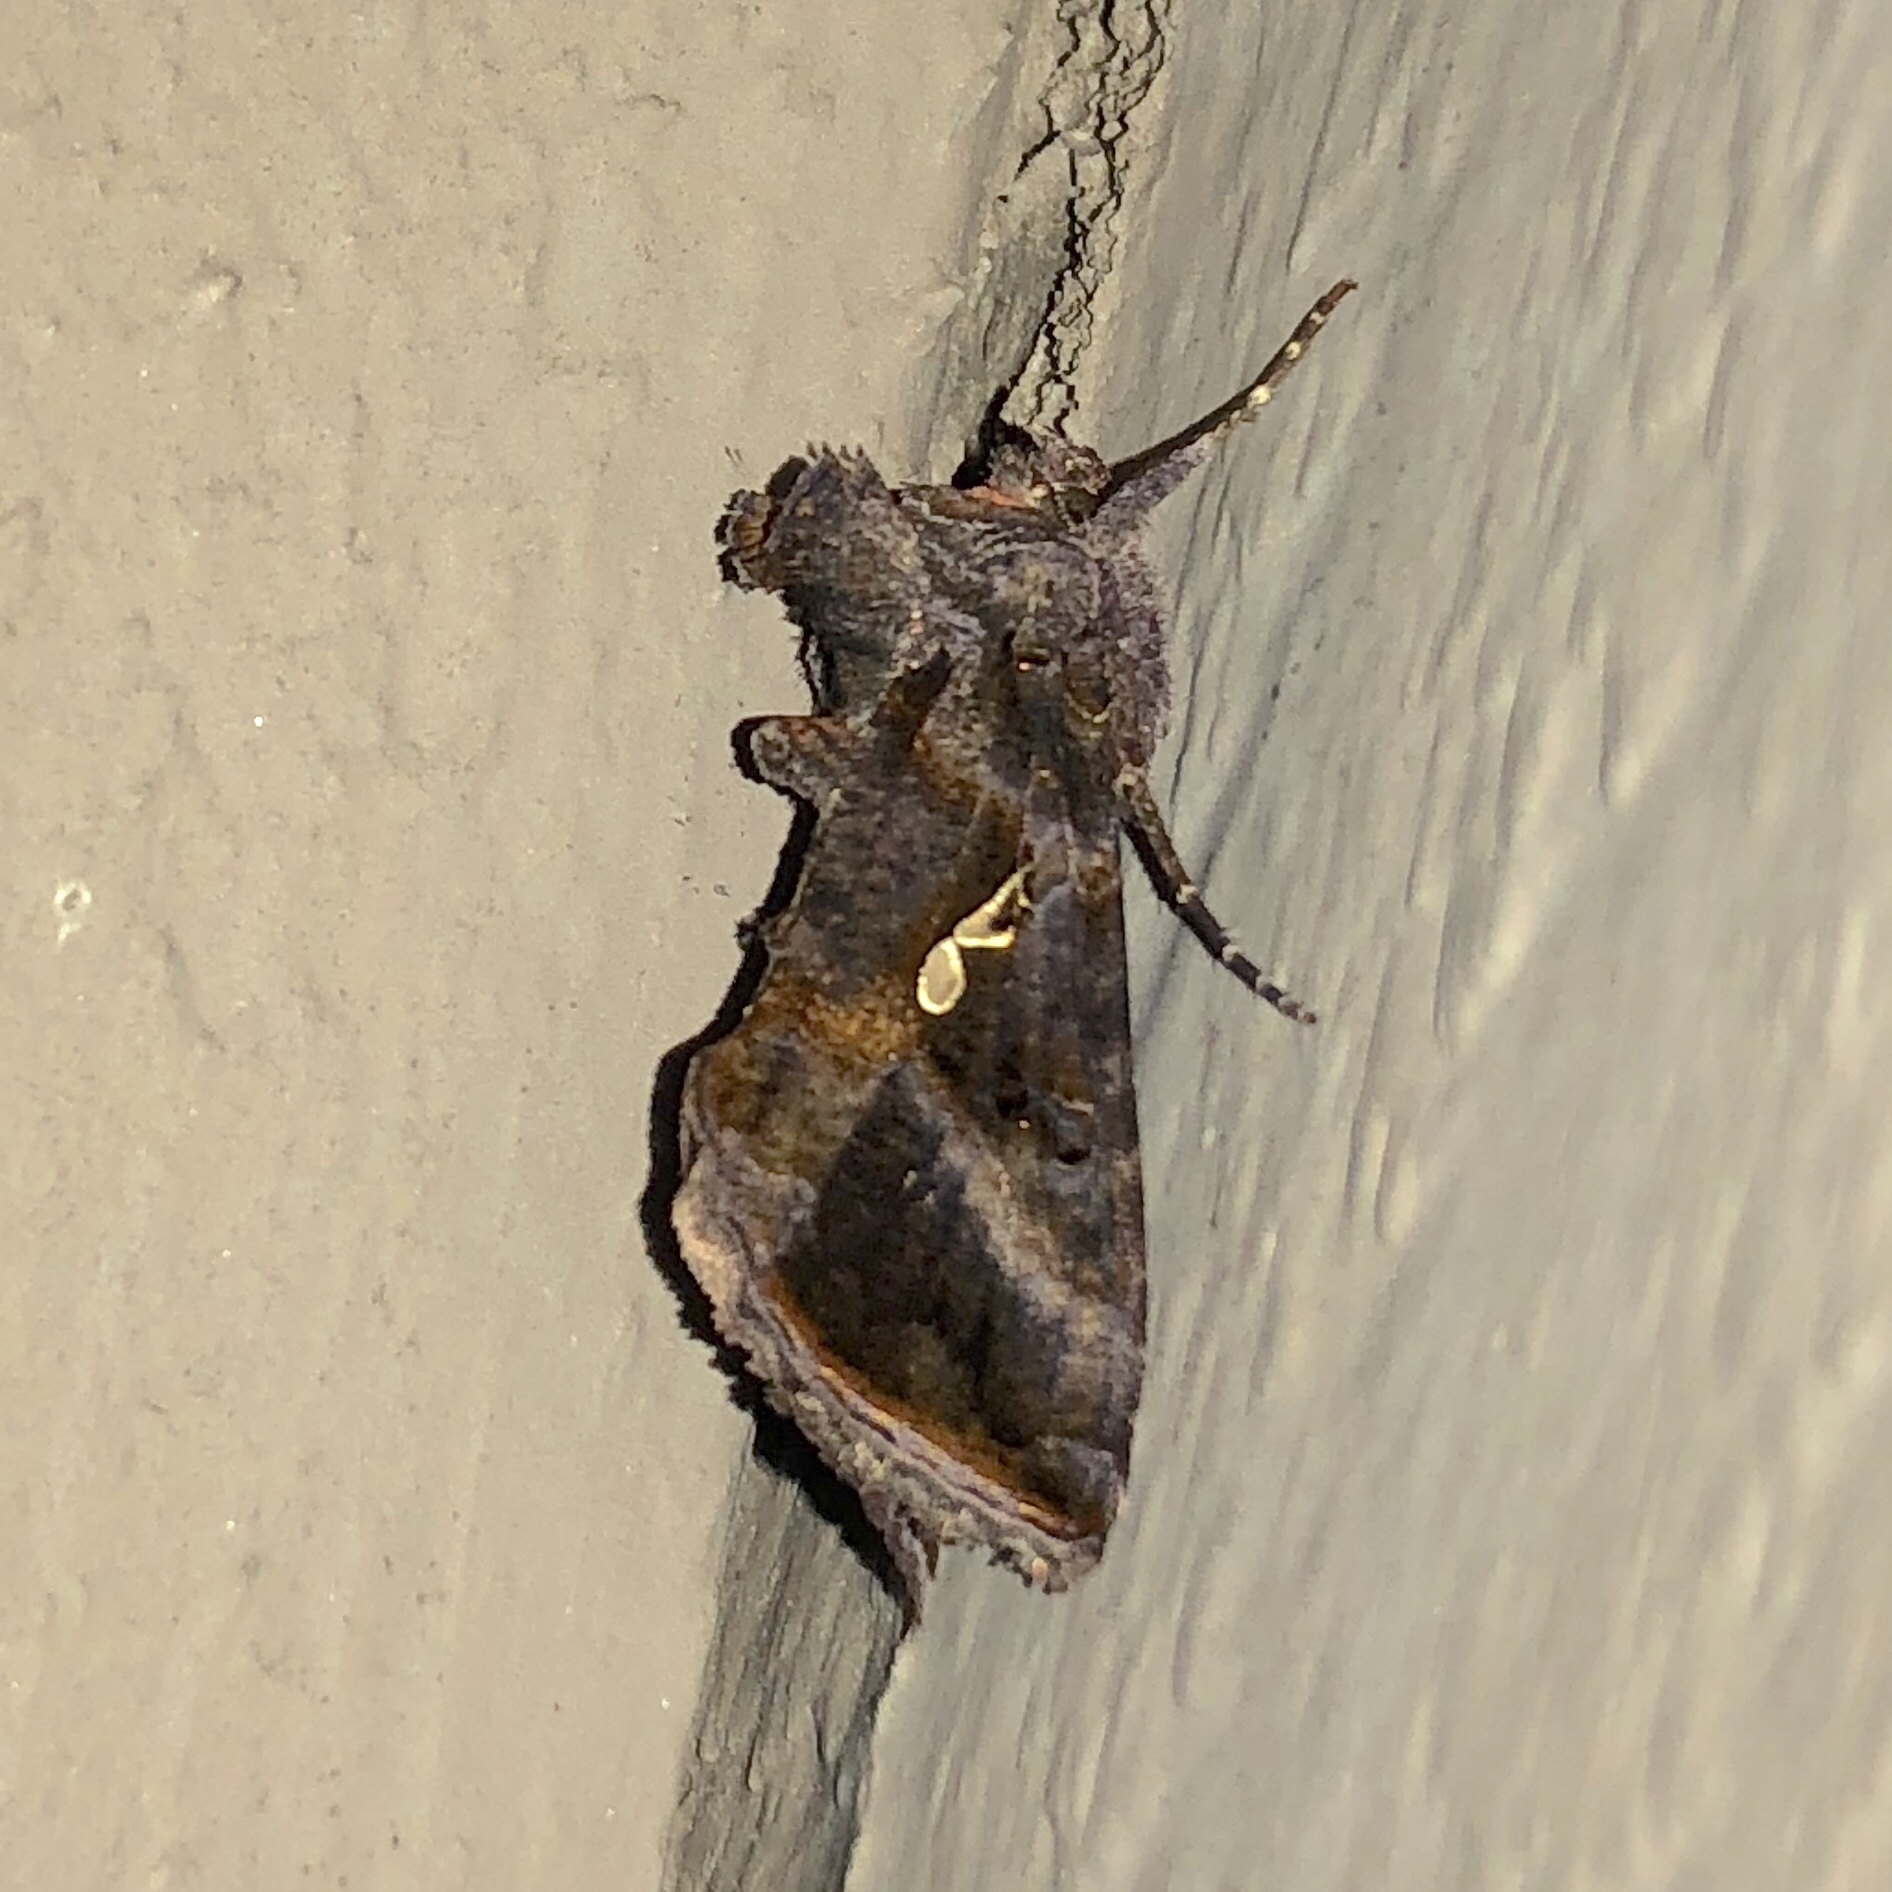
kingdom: Animalia
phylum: Arthropoda
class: Insecta
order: Lepidoptera
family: Noctuidae
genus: Autographa
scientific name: Autographa precationis
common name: Common looper moth
